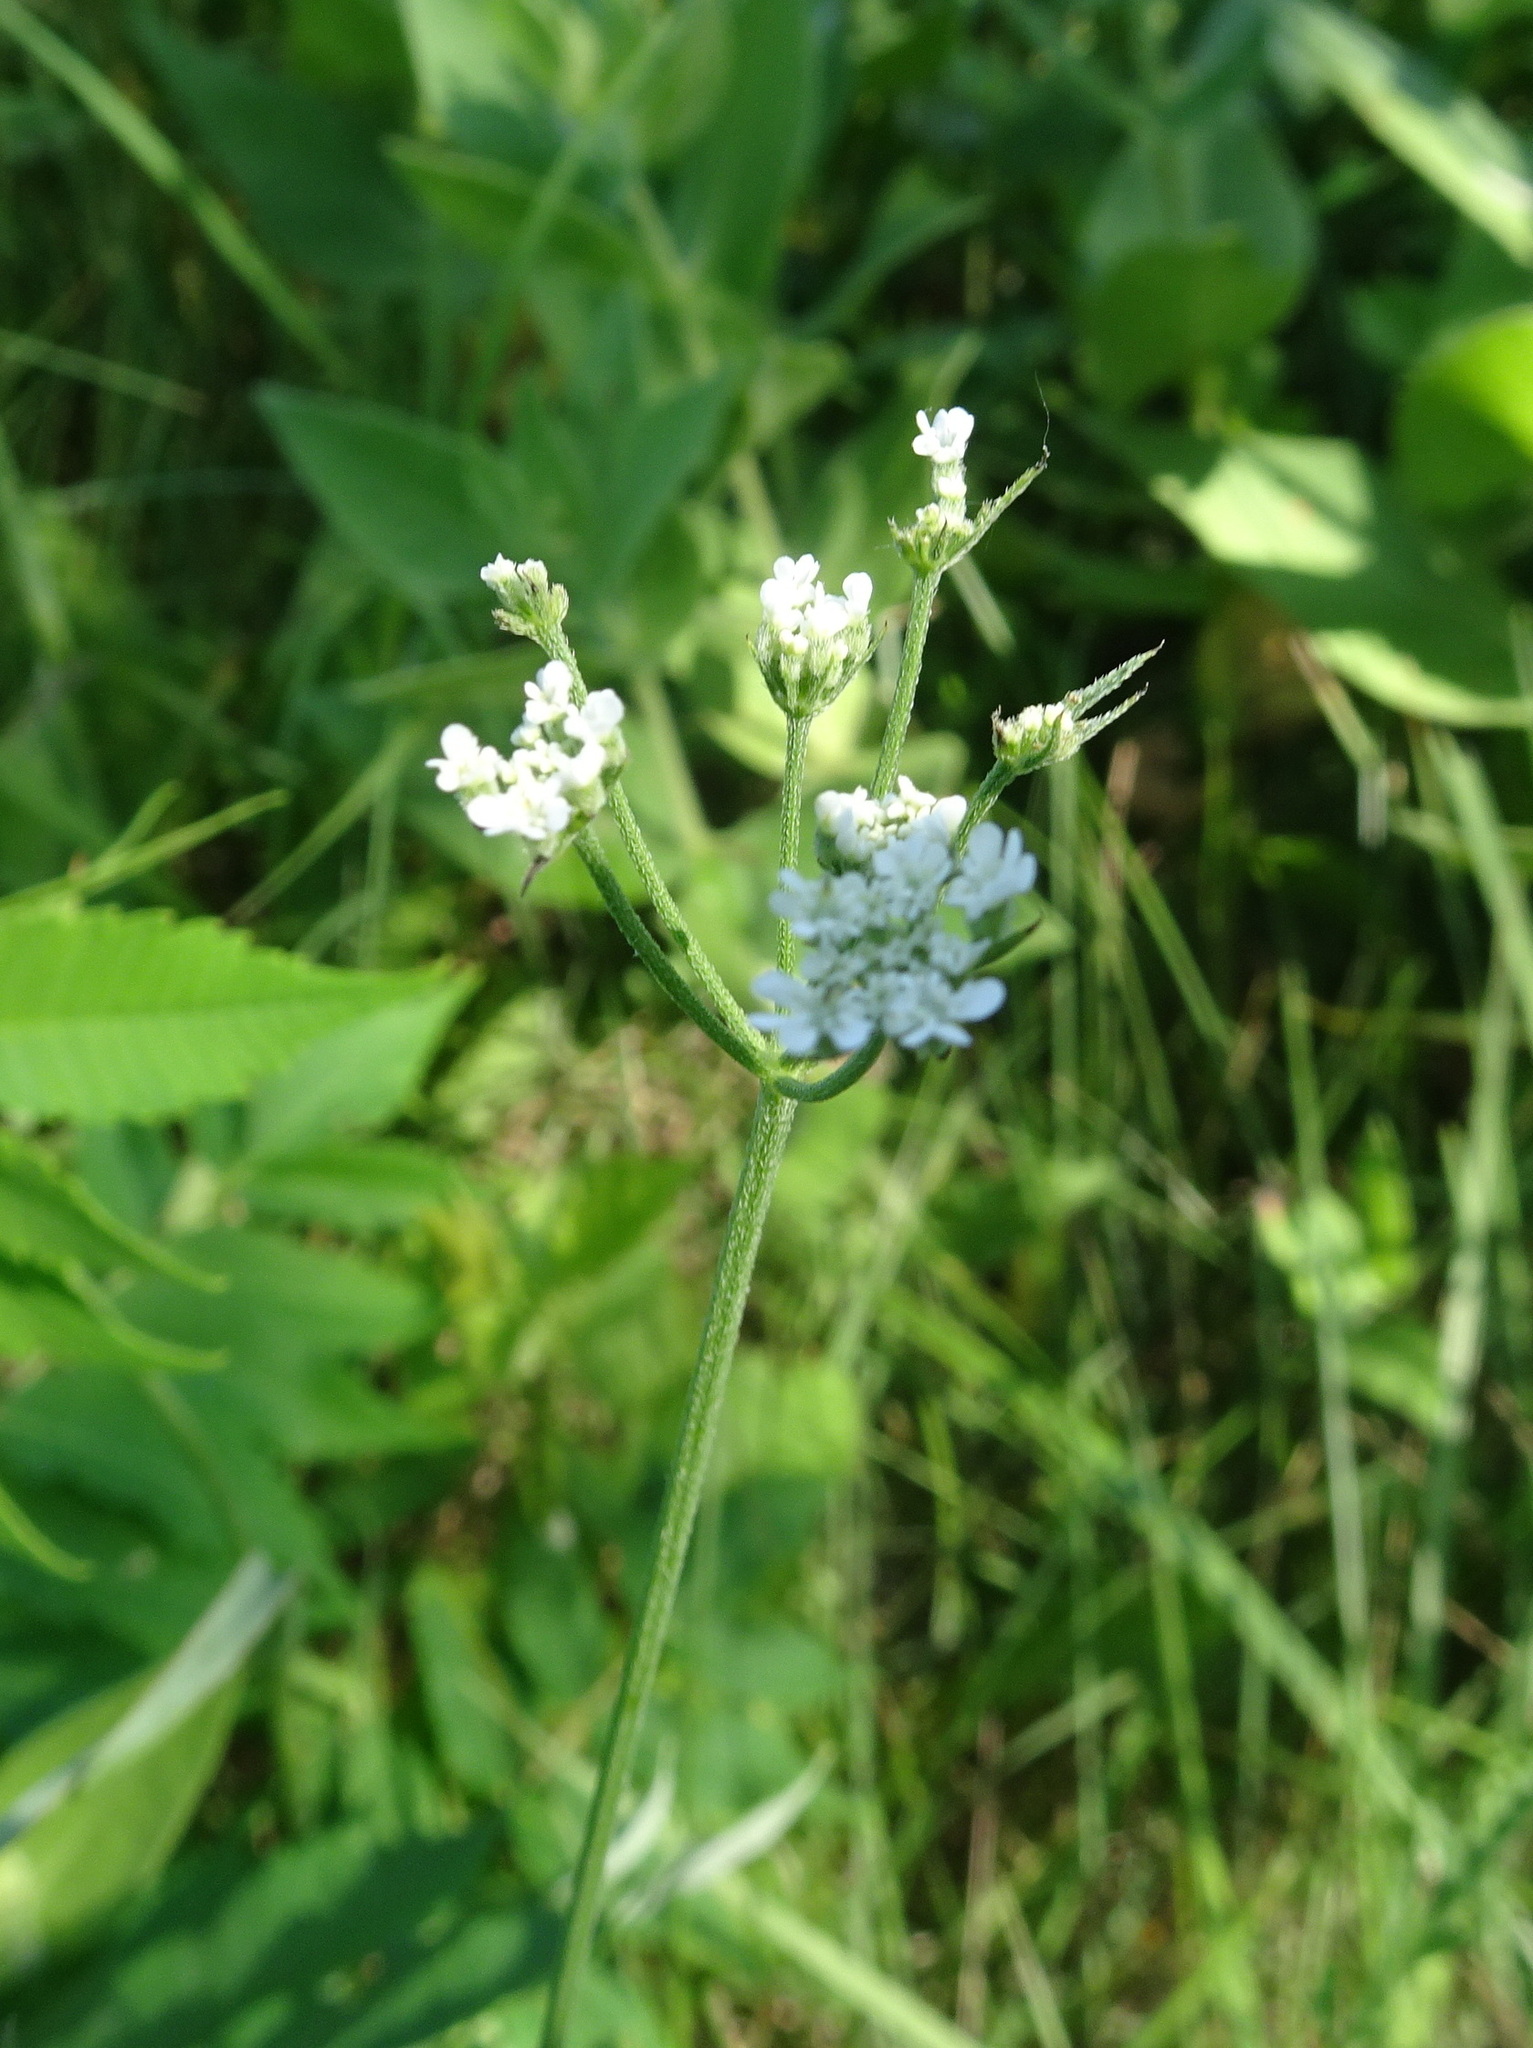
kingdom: Plantae
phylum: Tracheophyta
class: Magnoliopsida
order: Apiales
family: Apiaceae
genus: Torilis
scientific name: Torilis arvensis
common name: Spreading hedge-parsley
